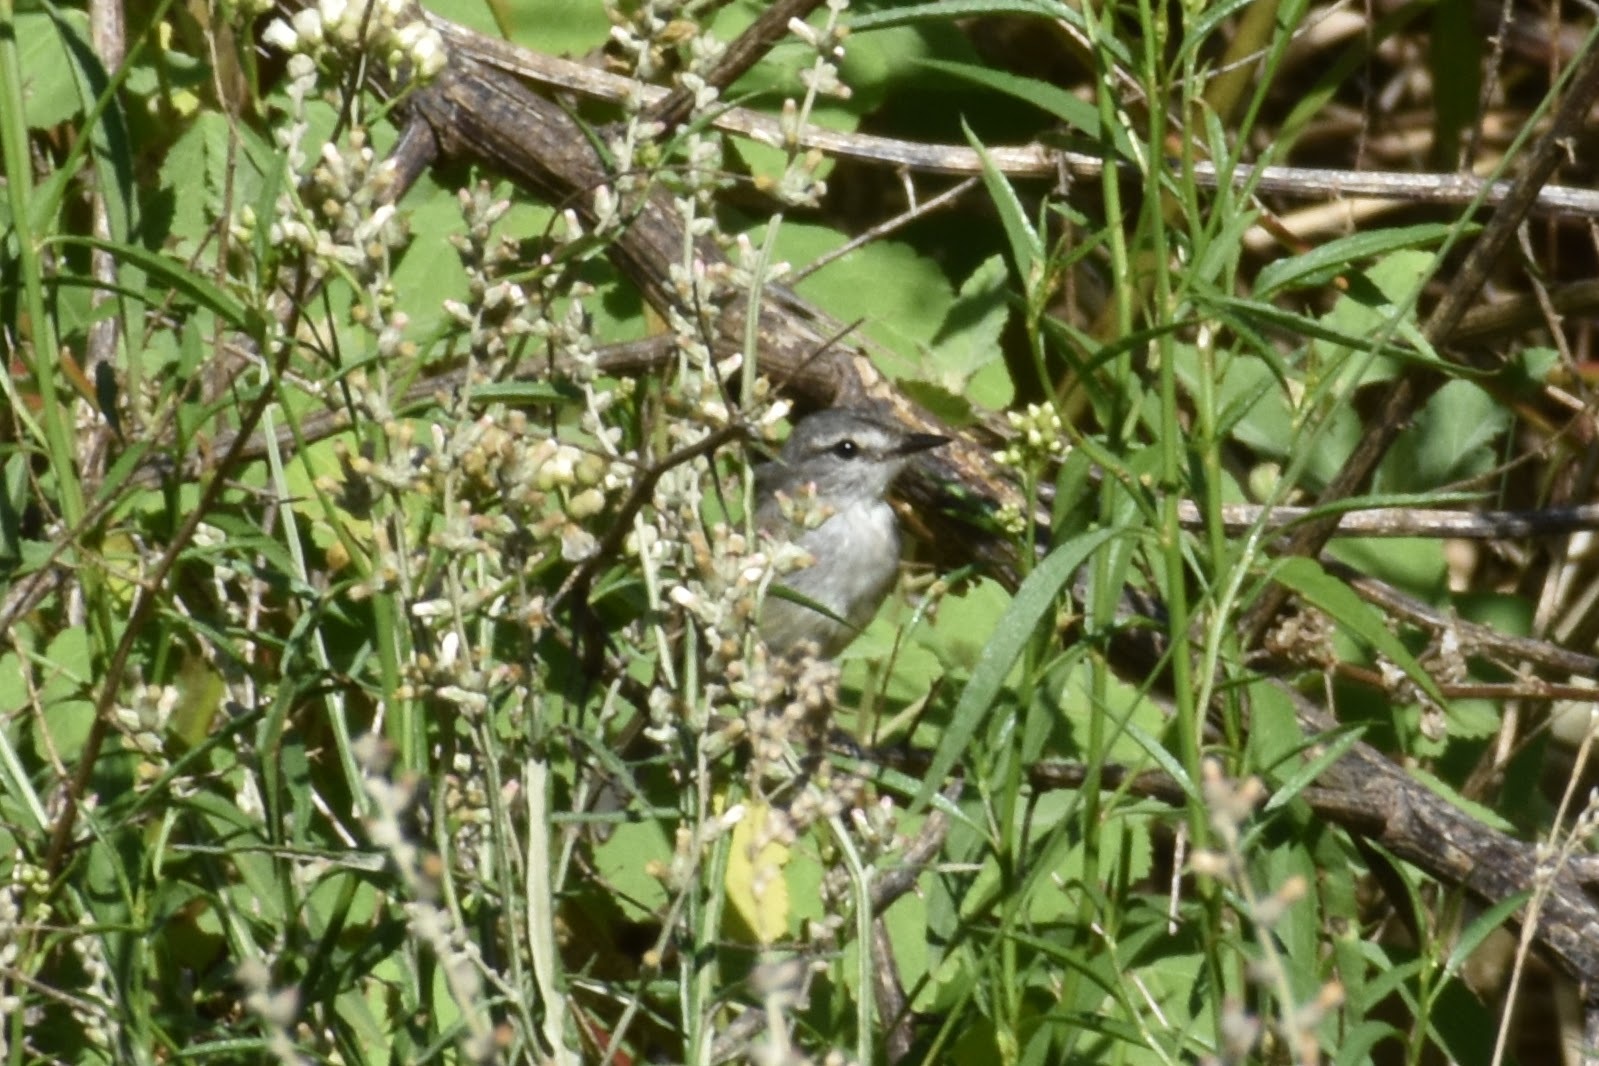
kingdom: Animalia
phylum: Chordata
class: Aves
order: Passeriformes
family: Tyrannidae
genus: Serpophaga
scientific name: Serpophaga subcristata
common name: White-crested tyrannulet
